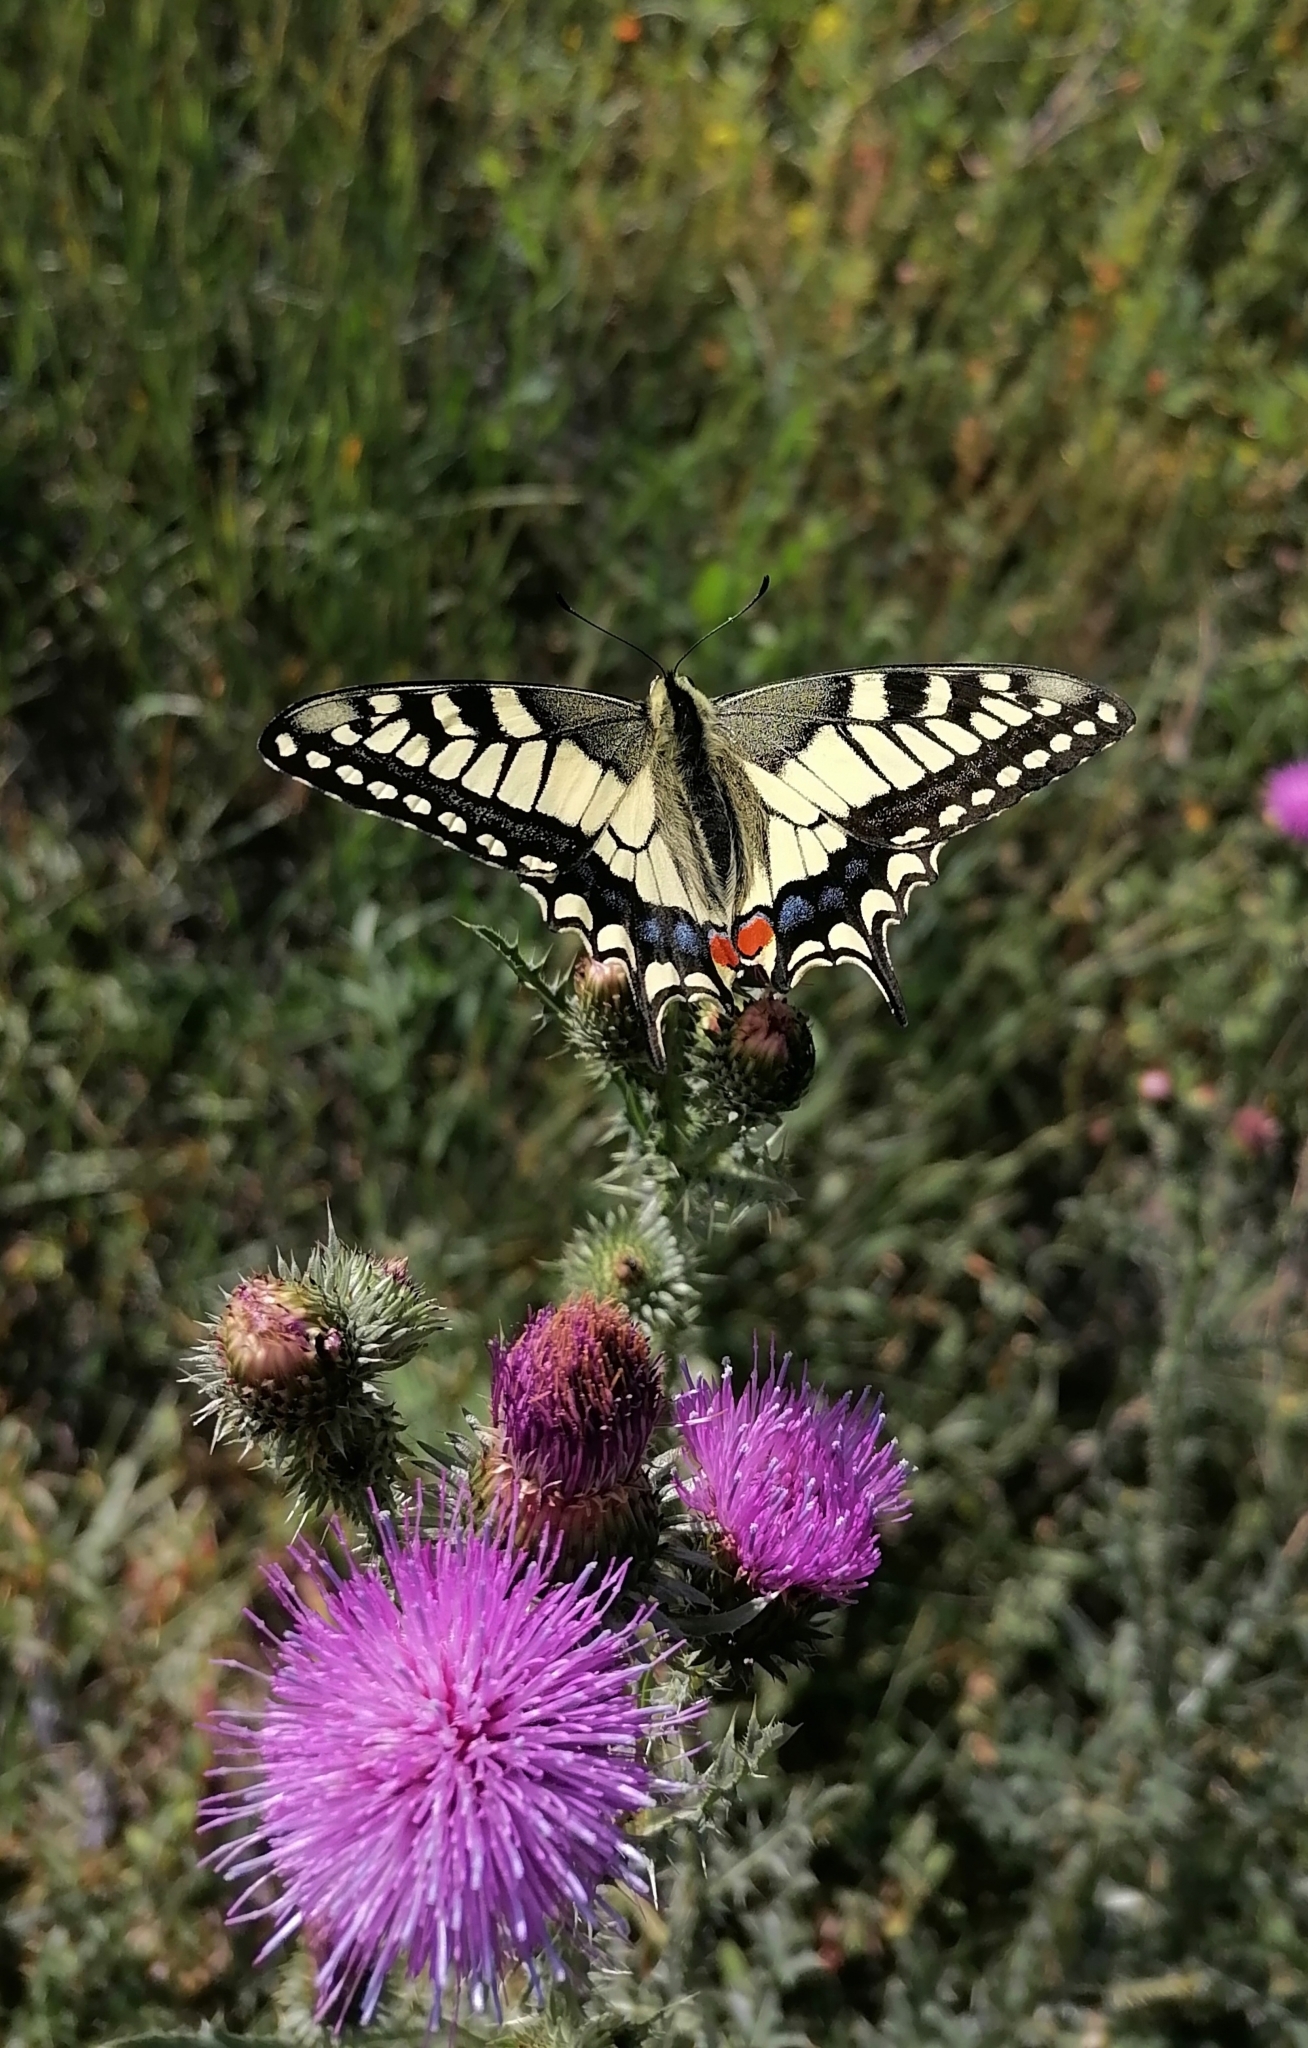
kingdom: Animalia
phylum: Arthropoda
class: Insecta
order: Lepidoptera
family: Papilionidae
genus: Papilio
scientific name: Papilio machaon
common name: Swallowtail
